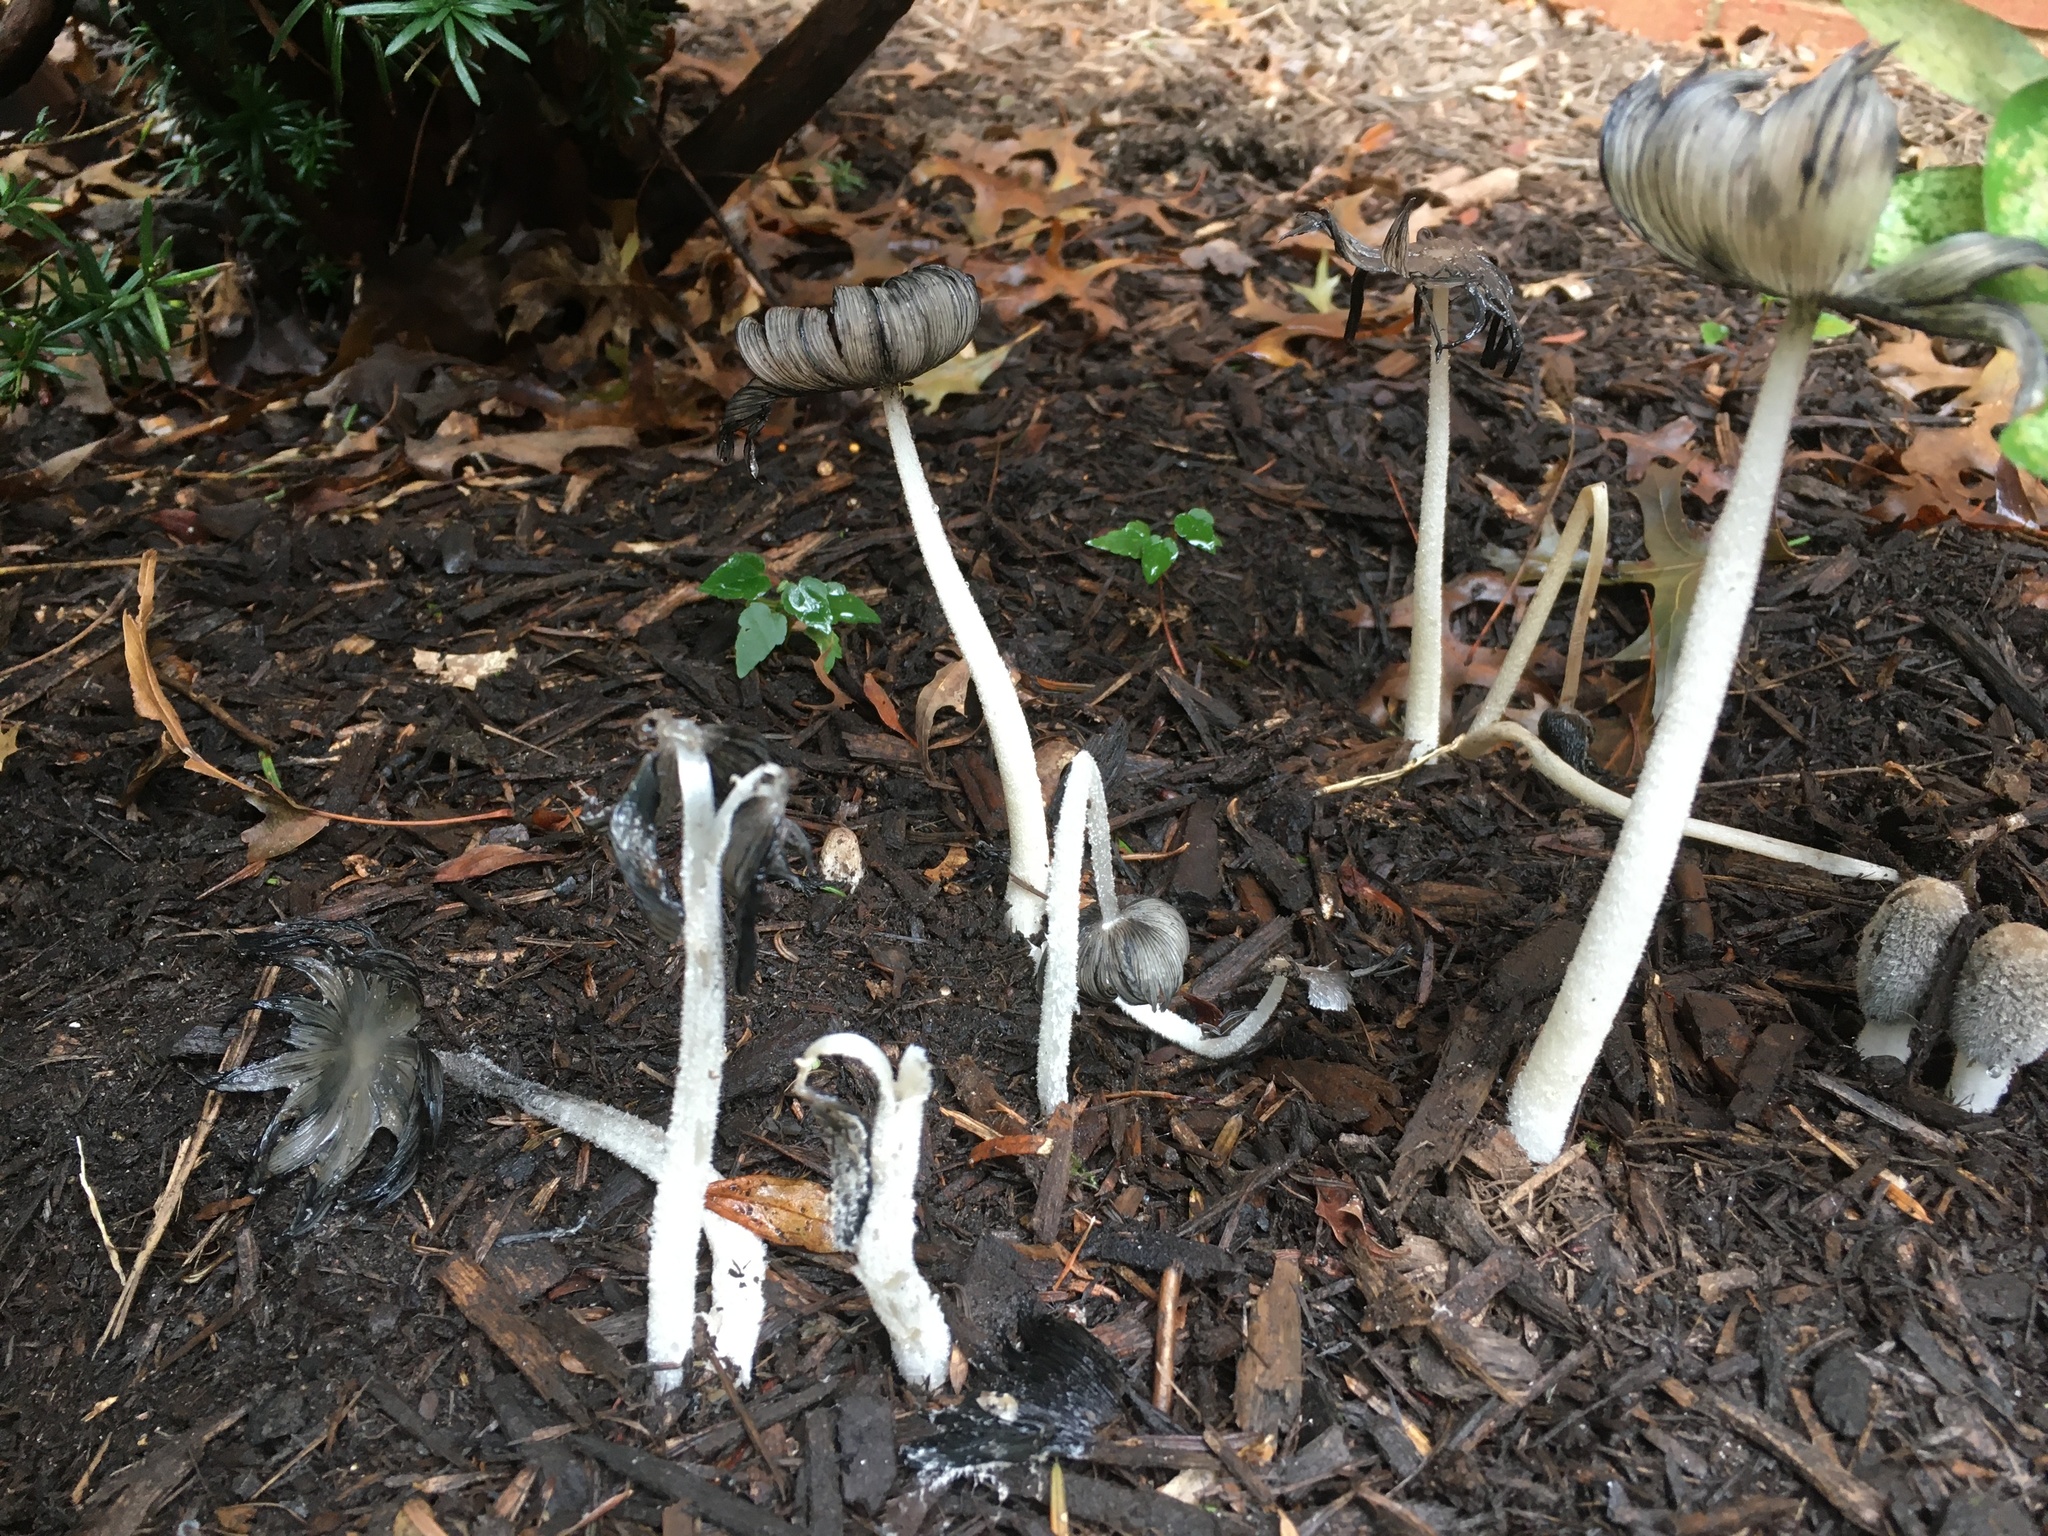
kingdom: Fungi
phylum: Basidiomycota
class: Agaricomycetes
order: Agaricales
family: Psathyrellaceae
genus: Coprinopsis
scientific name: Coprinopsis lagopus
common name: Hare'sfoot inkcap
